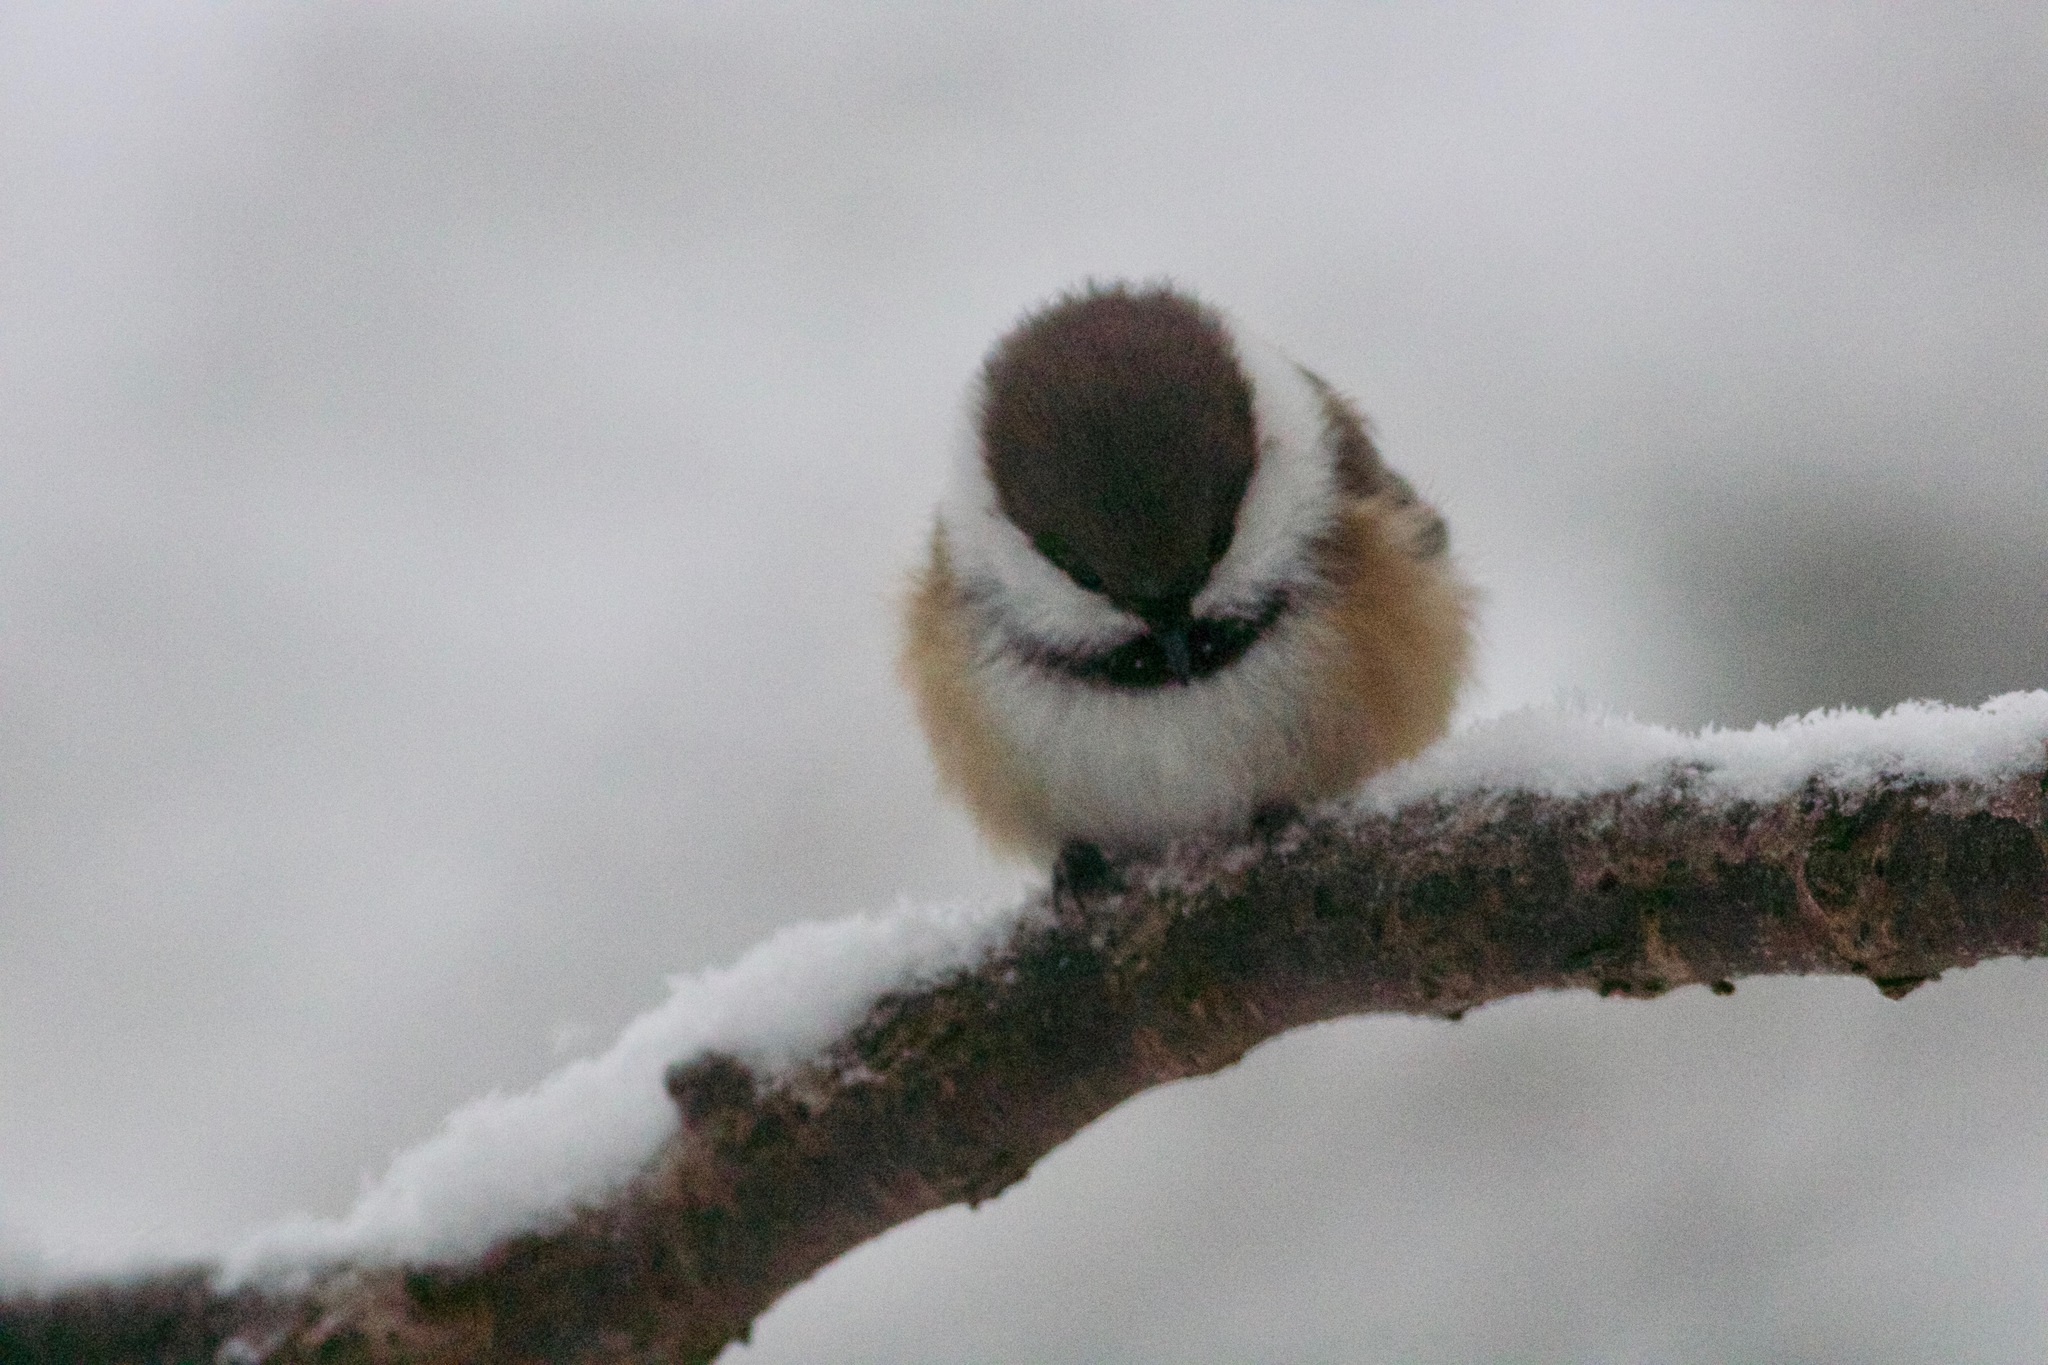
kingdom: Animalia
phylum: Chordata
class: Aves
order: Passeriformes
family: Paridae
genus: Poecile
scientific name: Poecile cinctus
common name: Gray-headed chickadee
